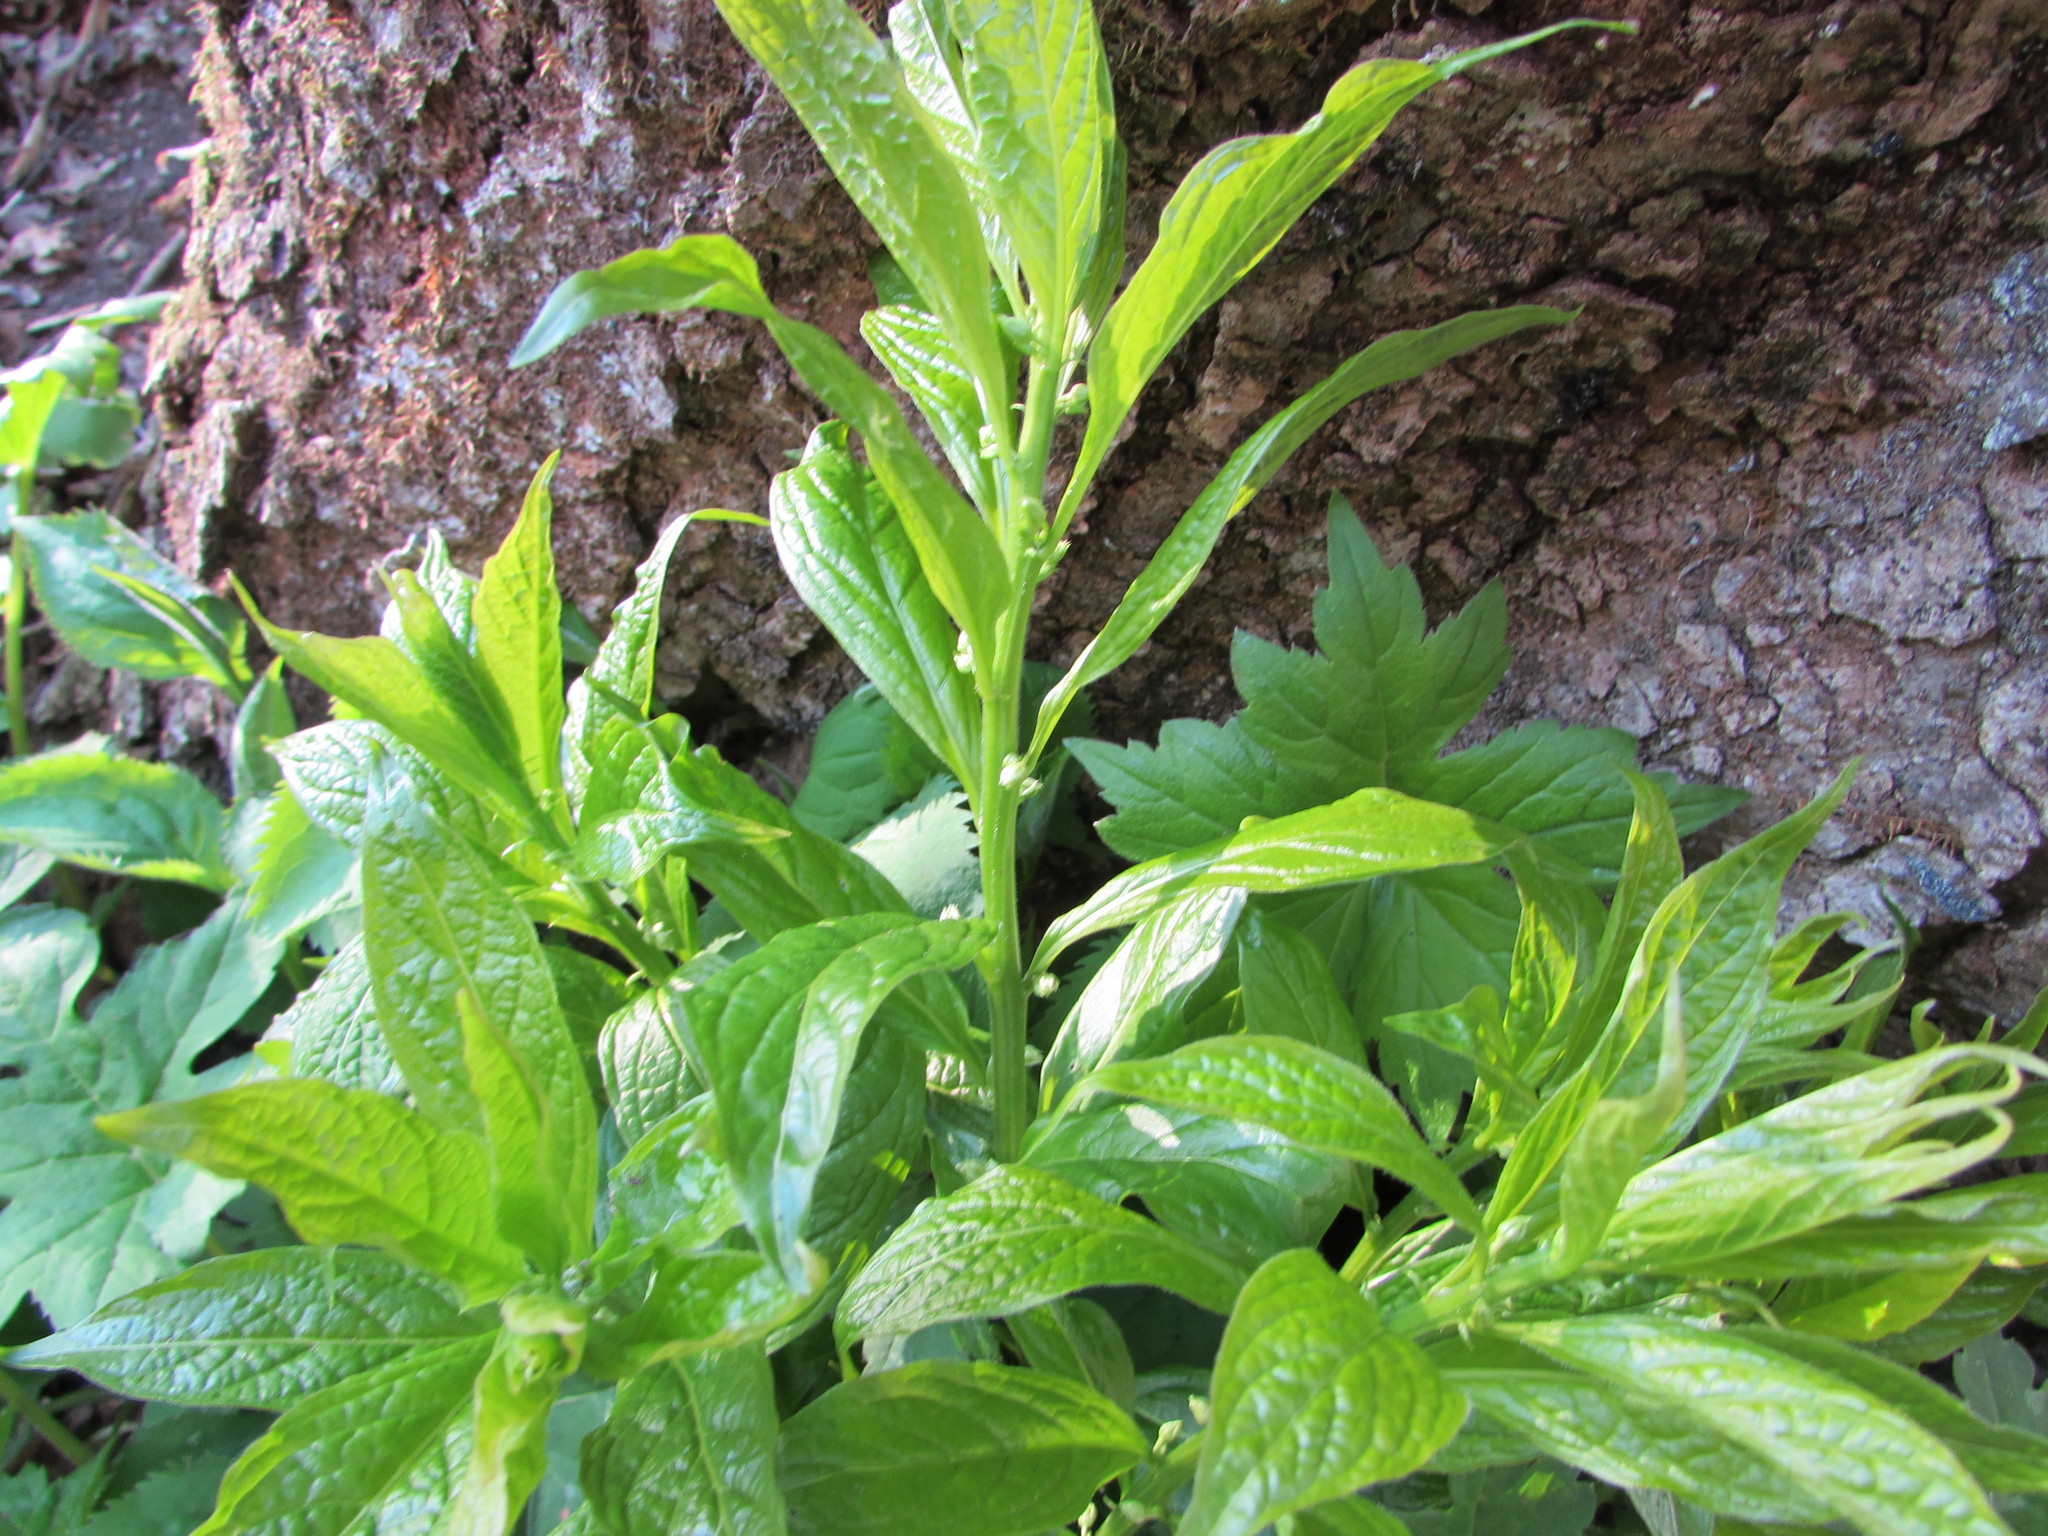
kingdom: Plantae
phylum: Tracheophyta
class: Magnoliopsida
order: Malpighiales
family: Violaceae
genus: Cubelium
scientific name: Cubelium concolor
